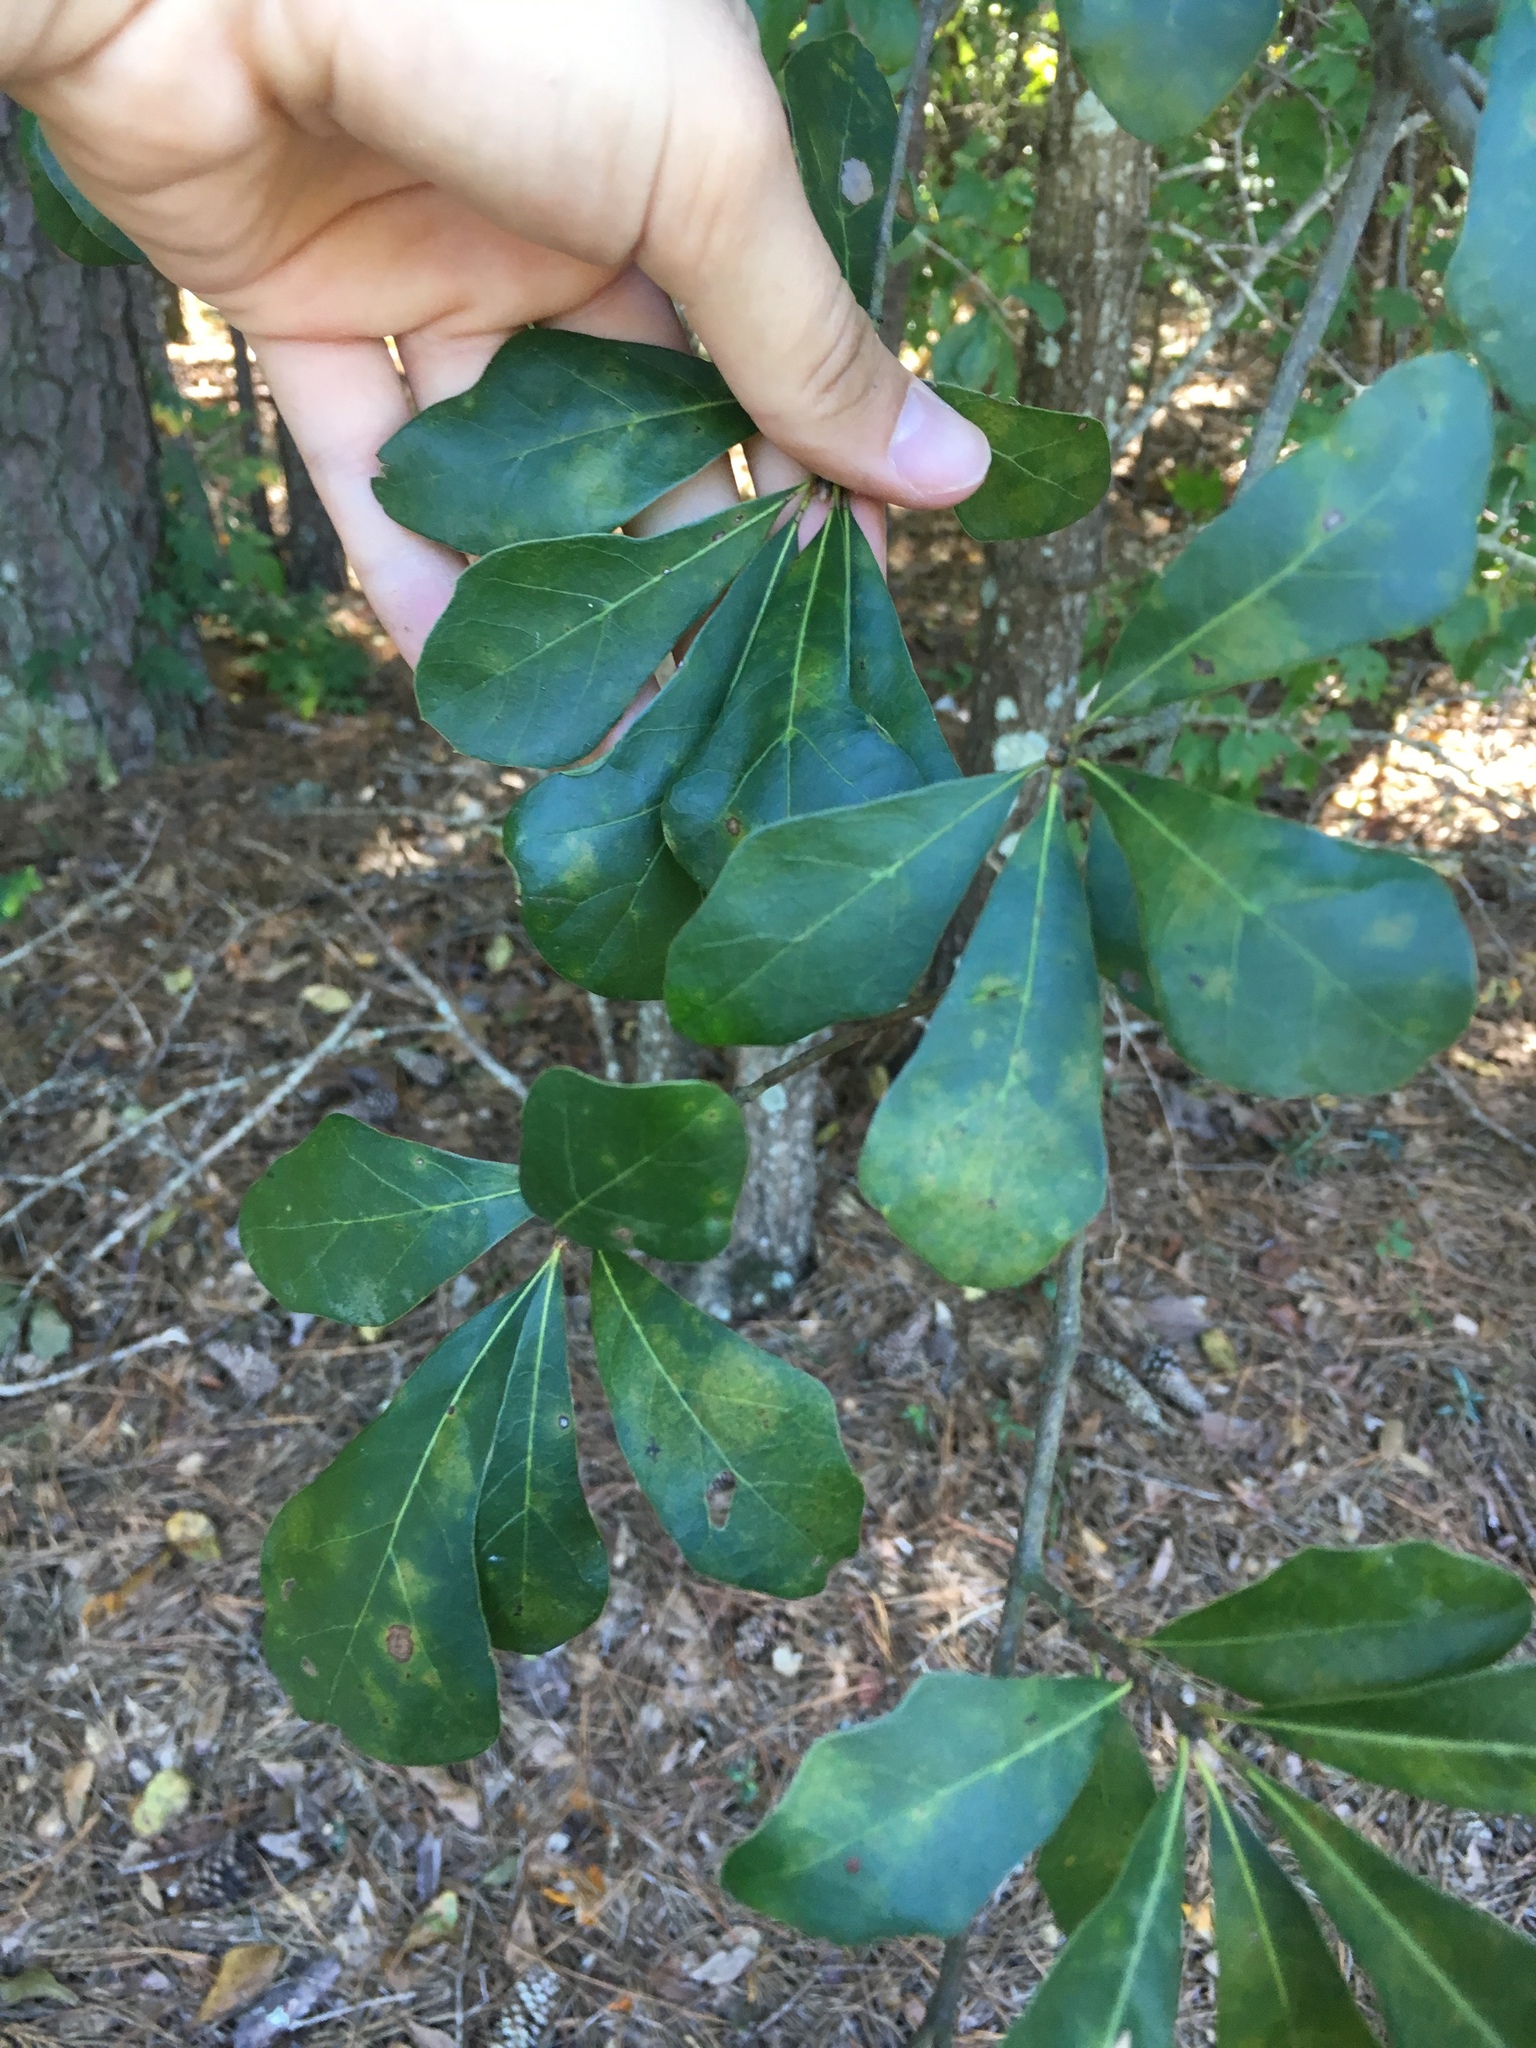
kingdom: Plantae
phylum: Tracheophyta
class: Magnoliopsida
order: Fagales
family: Fagaceae
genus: Quercus
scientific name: Quercus nigra
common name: Water oak
